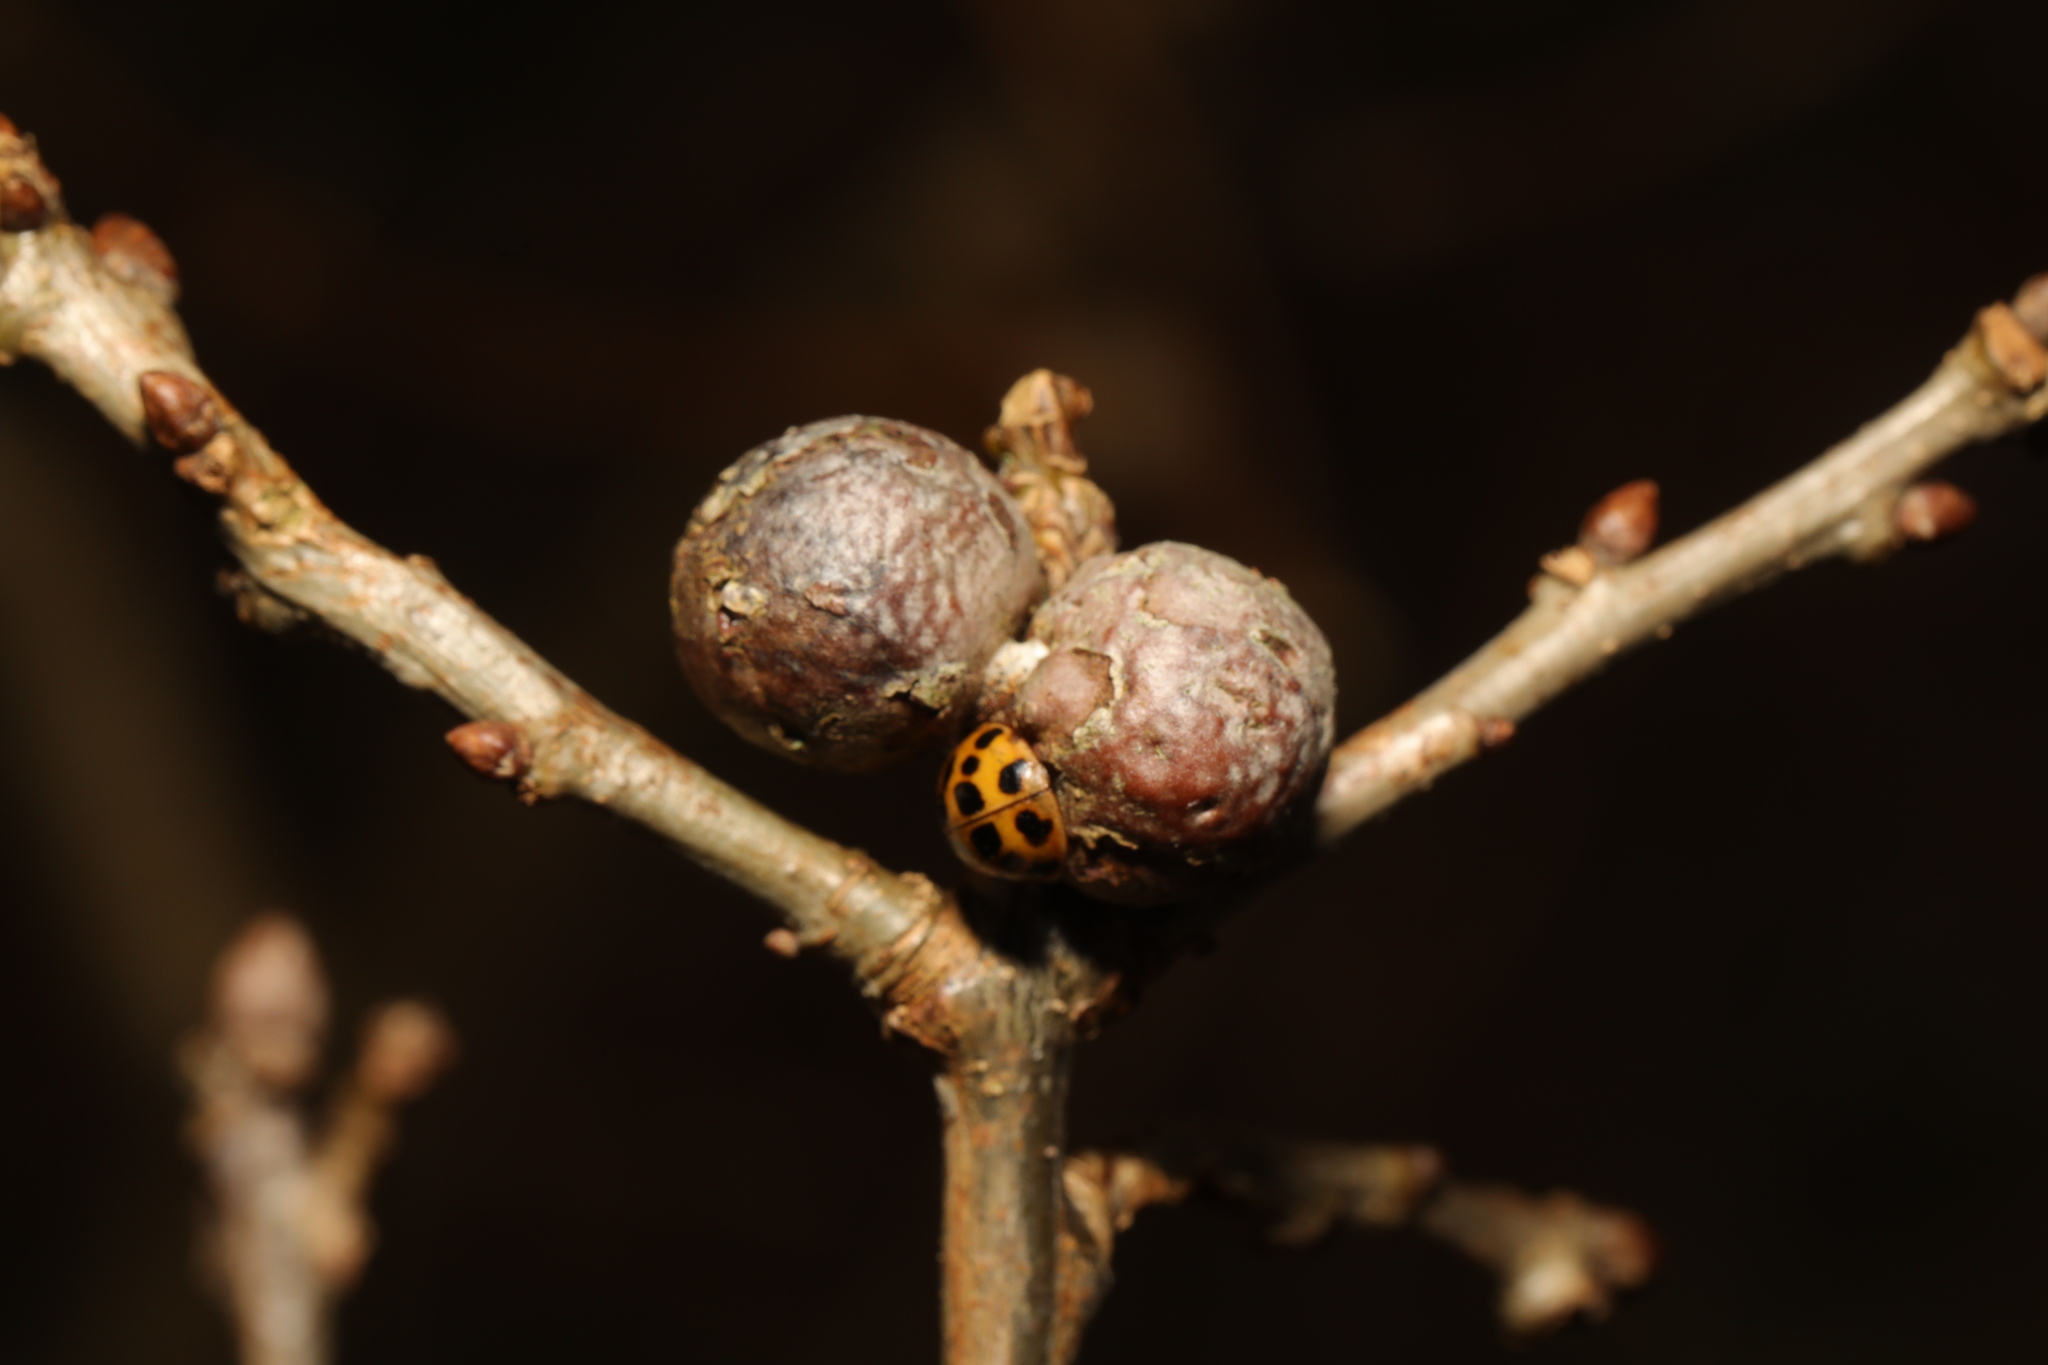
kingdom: Animalia
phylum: Arthropoda
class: Insecta
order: Hymenoptera
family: Cynipidae
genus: Andricus
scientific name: Andricus lignicolus
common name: Cola-nut gall
